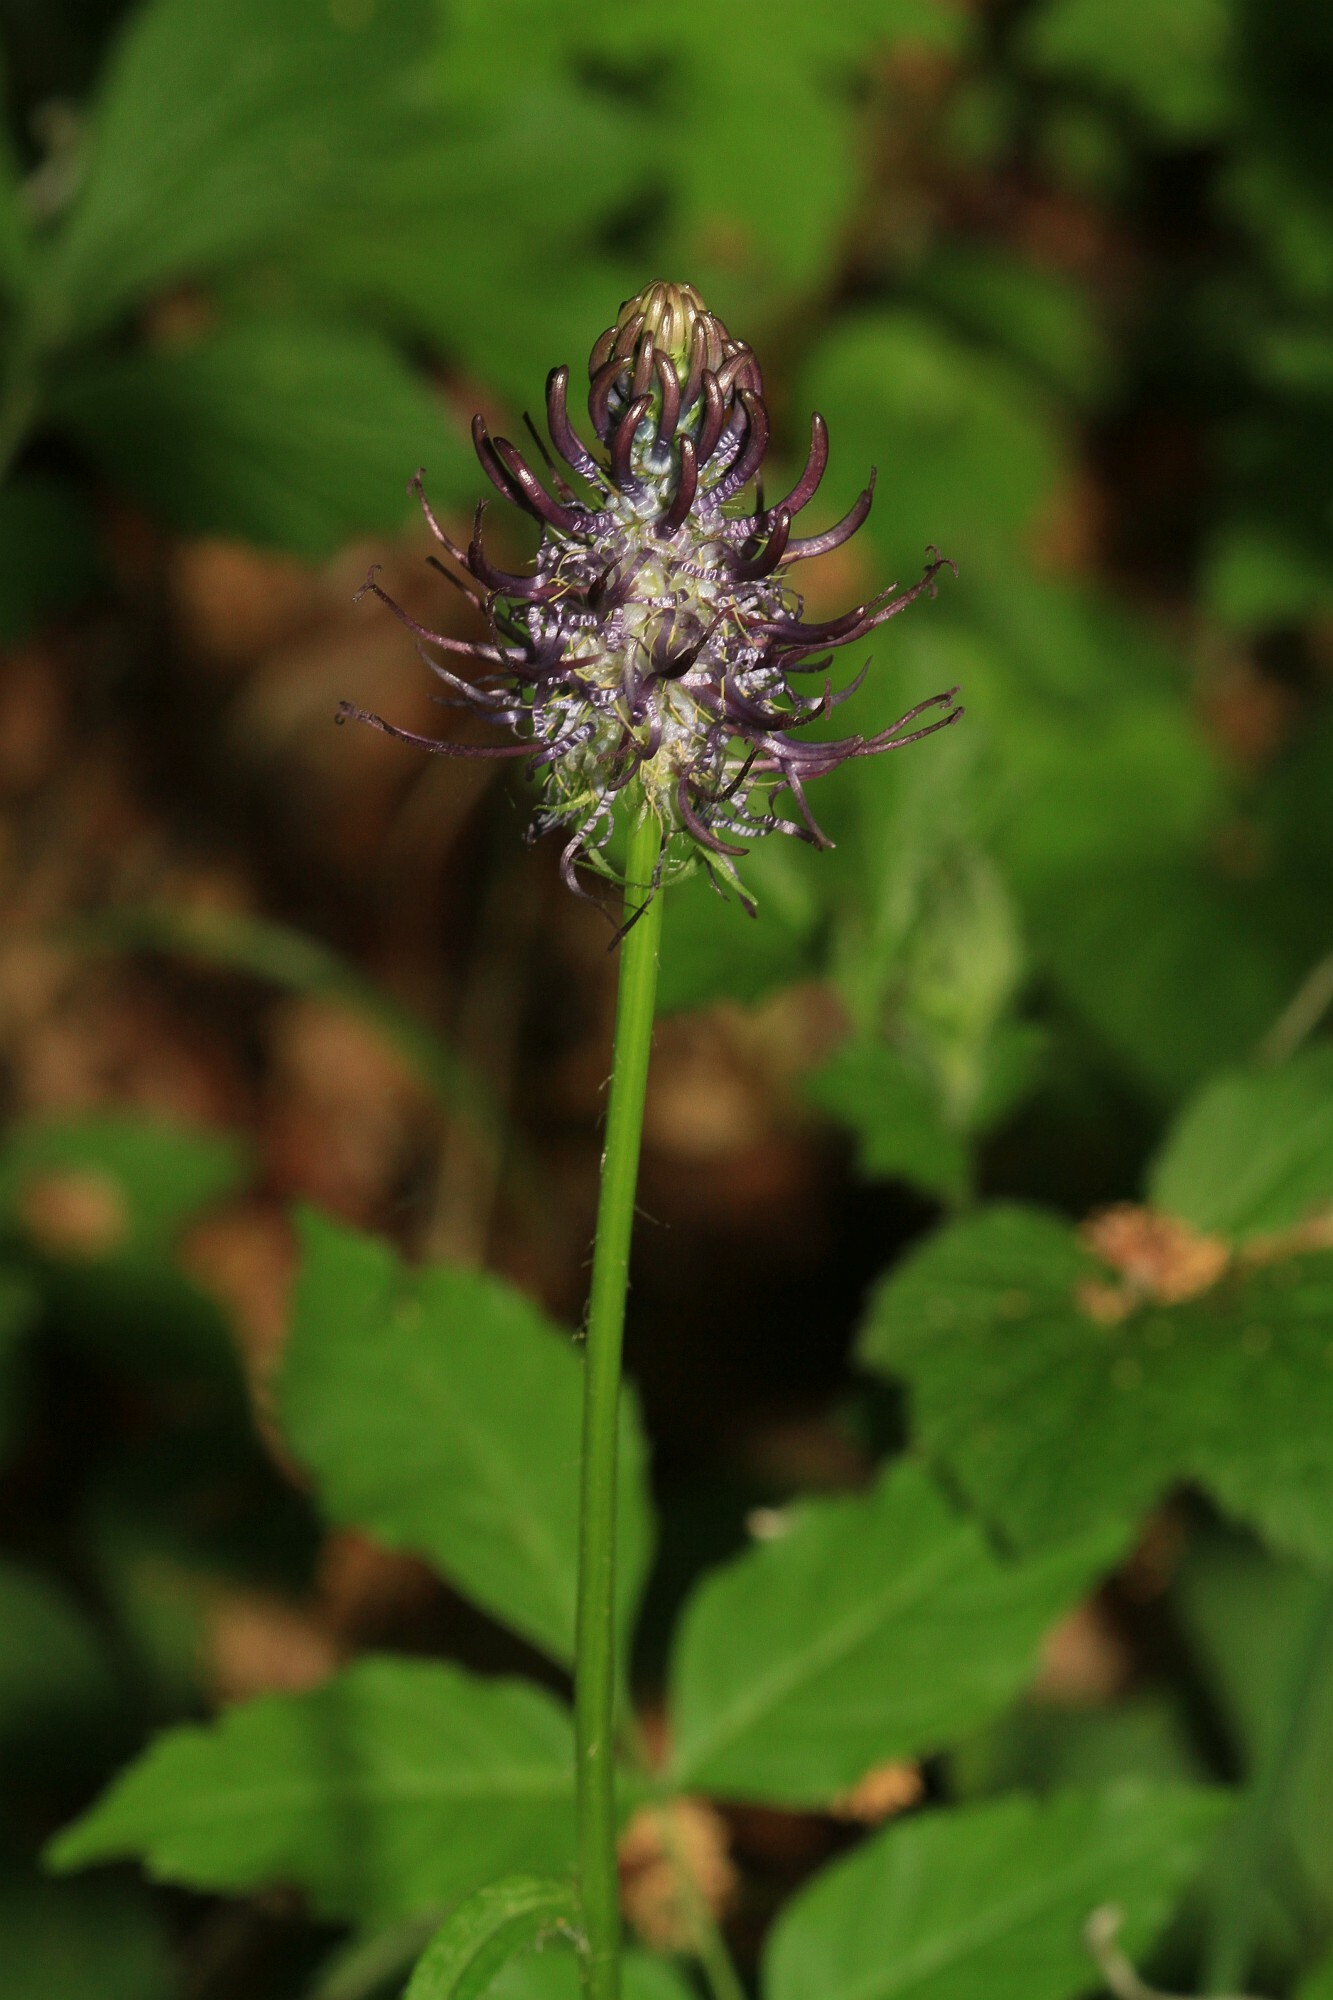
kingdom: Plantae
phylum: Tracheophyta
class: Magnoliopsida
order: Asterales
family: Campanulaceae
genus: Phyteuma
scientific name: Phyteuma nigrum
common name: Black rampion
